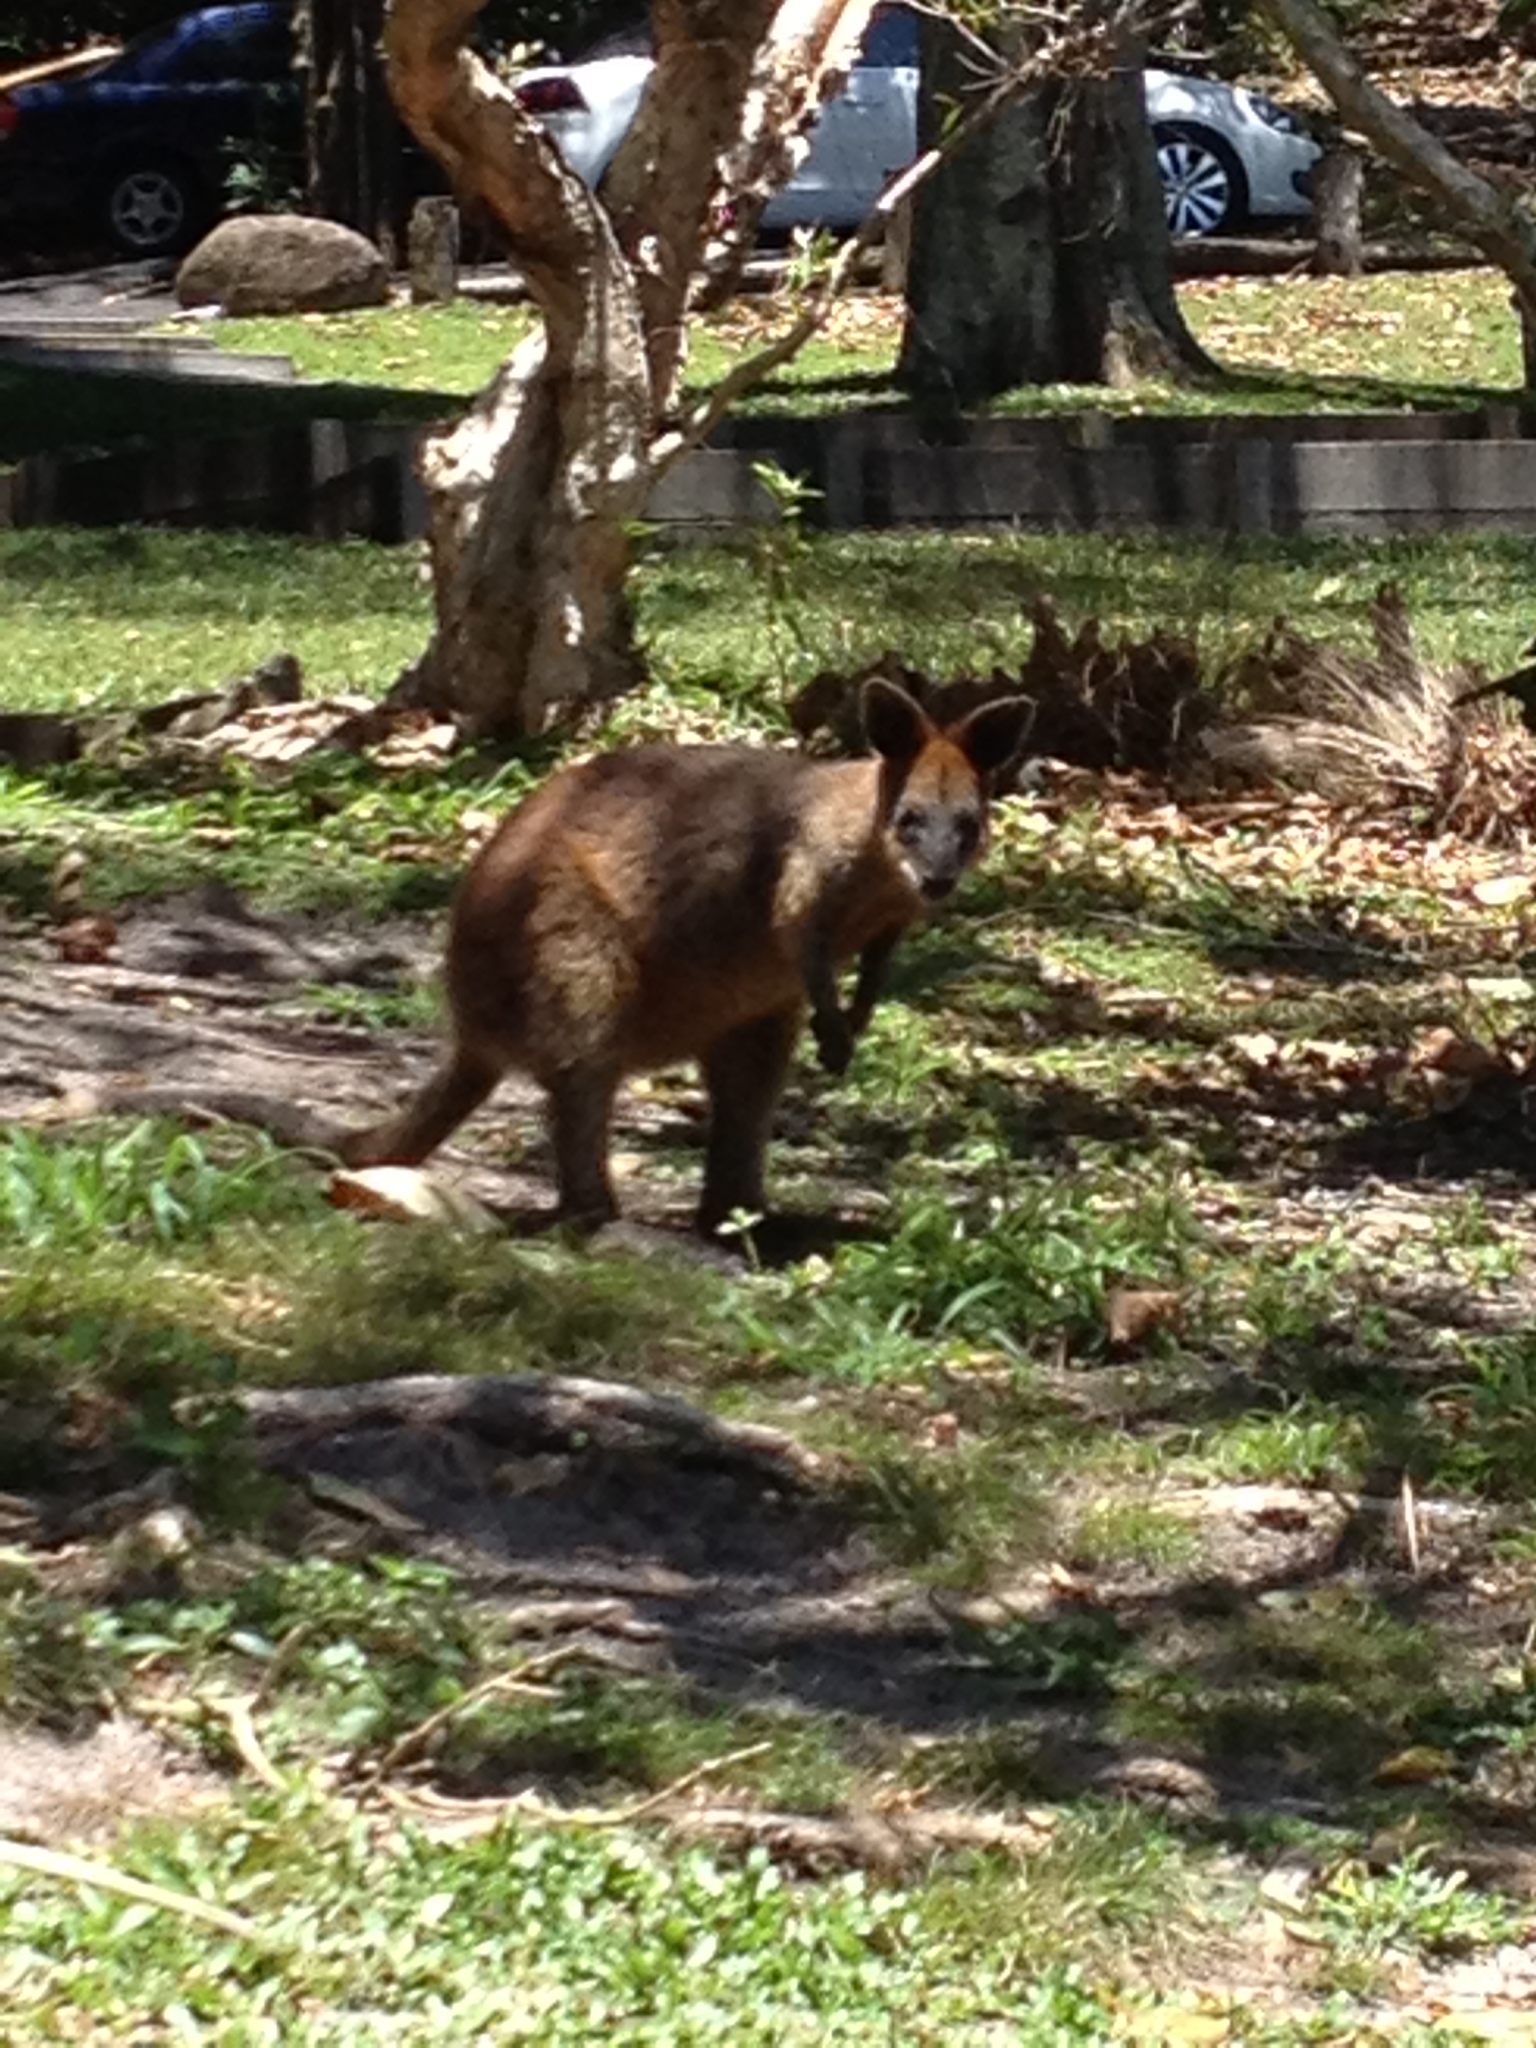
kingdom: Animalia
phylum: Chordata
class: Mammalia
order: Diprotodontia
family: Macropodidae
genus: Wallabia
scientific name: Wallabia bicolor
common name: Swamp wallaby
